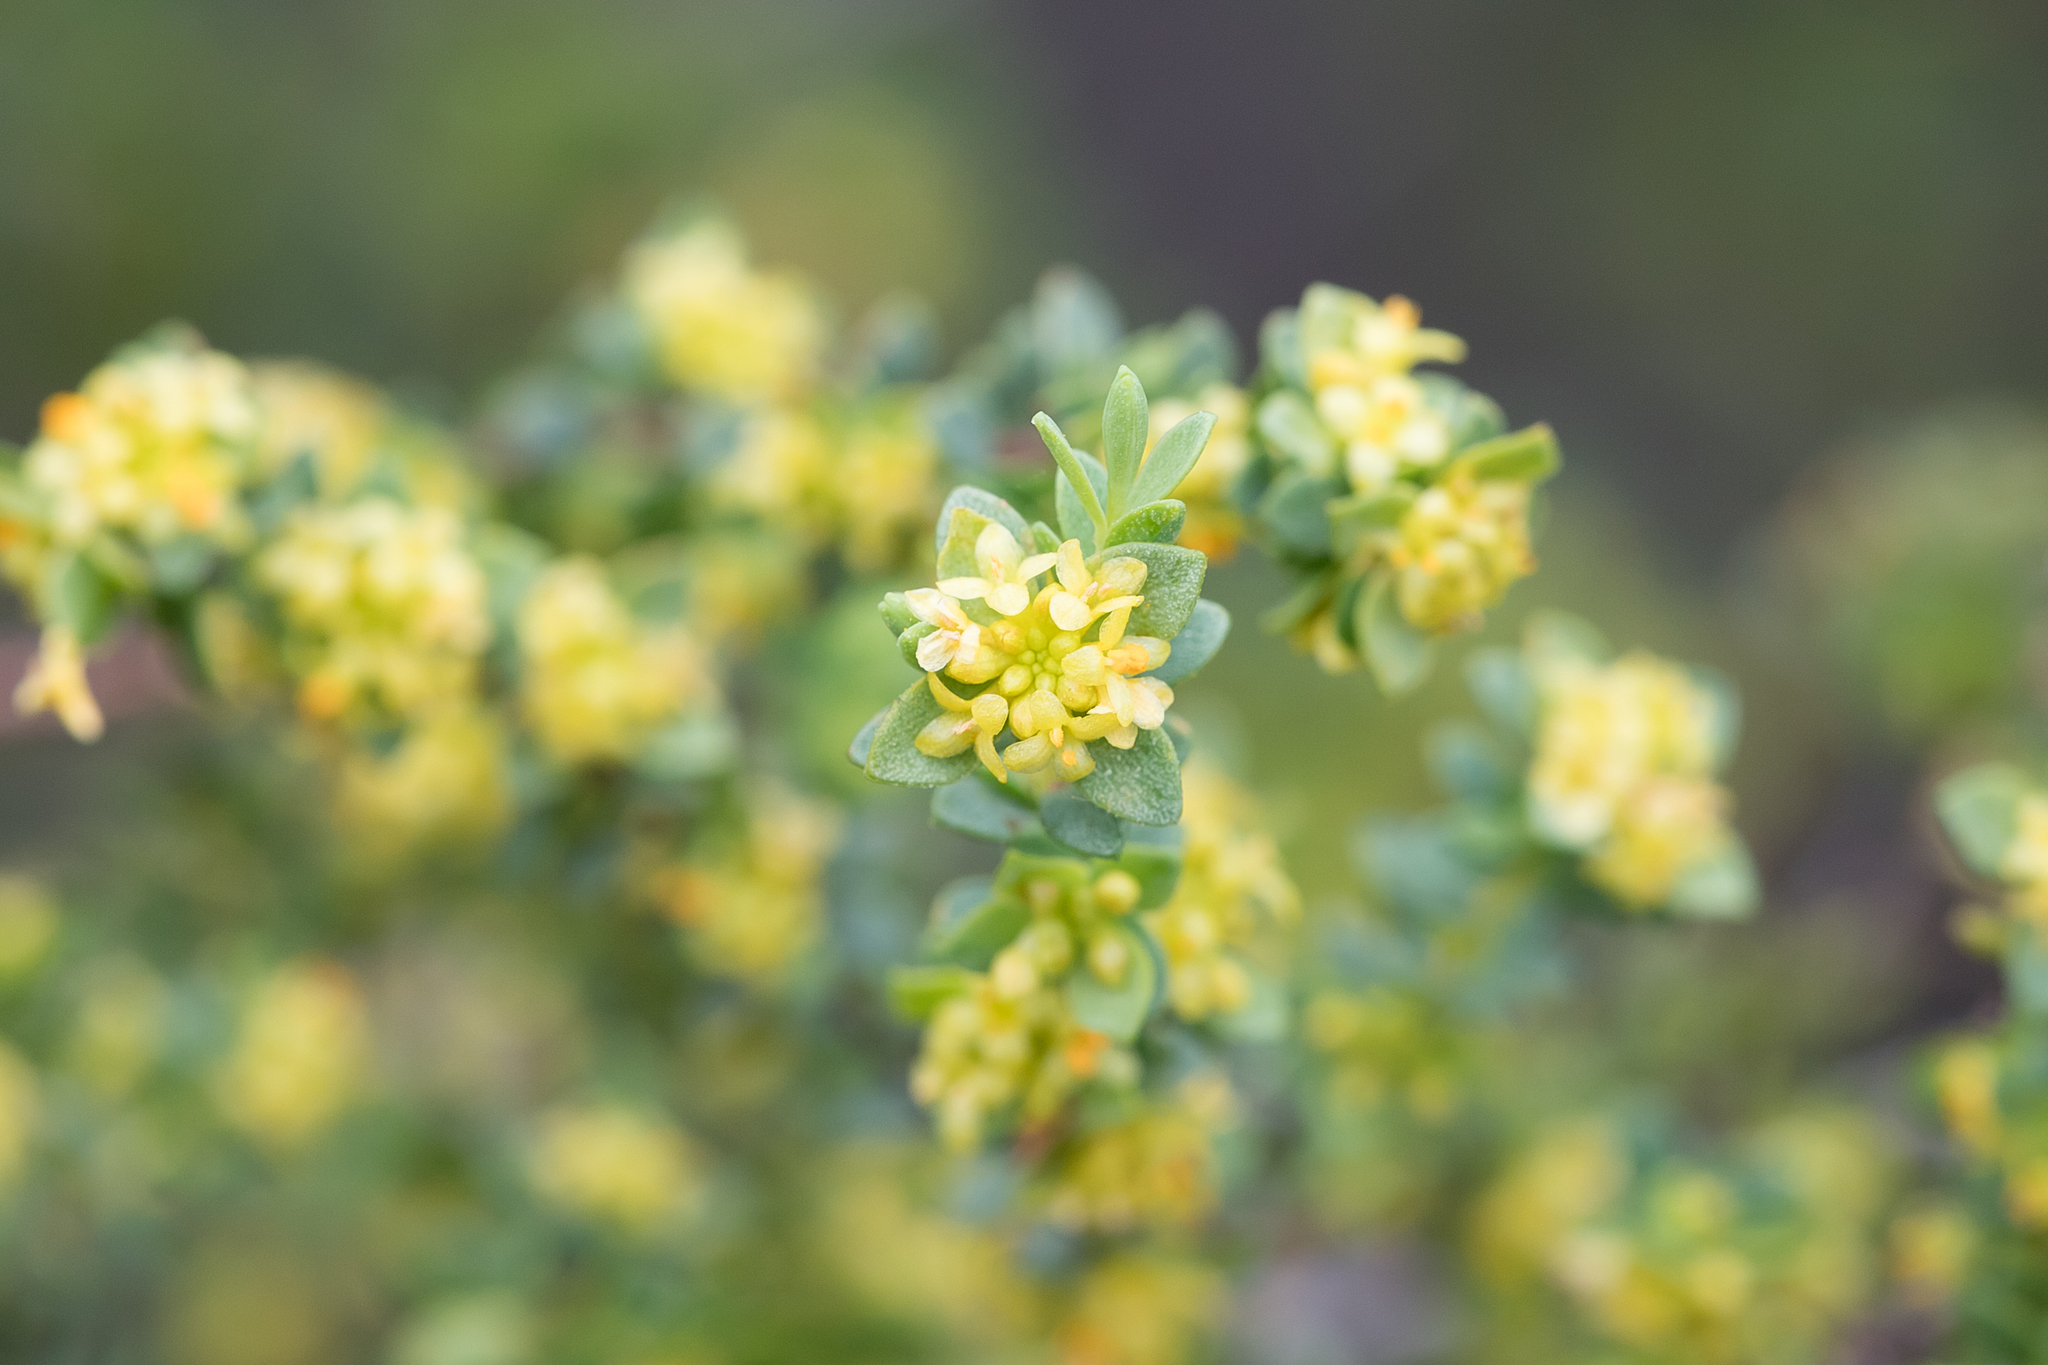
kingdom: Plantae
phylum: Tracheophyta
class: Magnoliopsida
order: Malvales
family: Thymelaeaceae
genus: Pimelea
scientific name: Pimelea serpyllifolia
